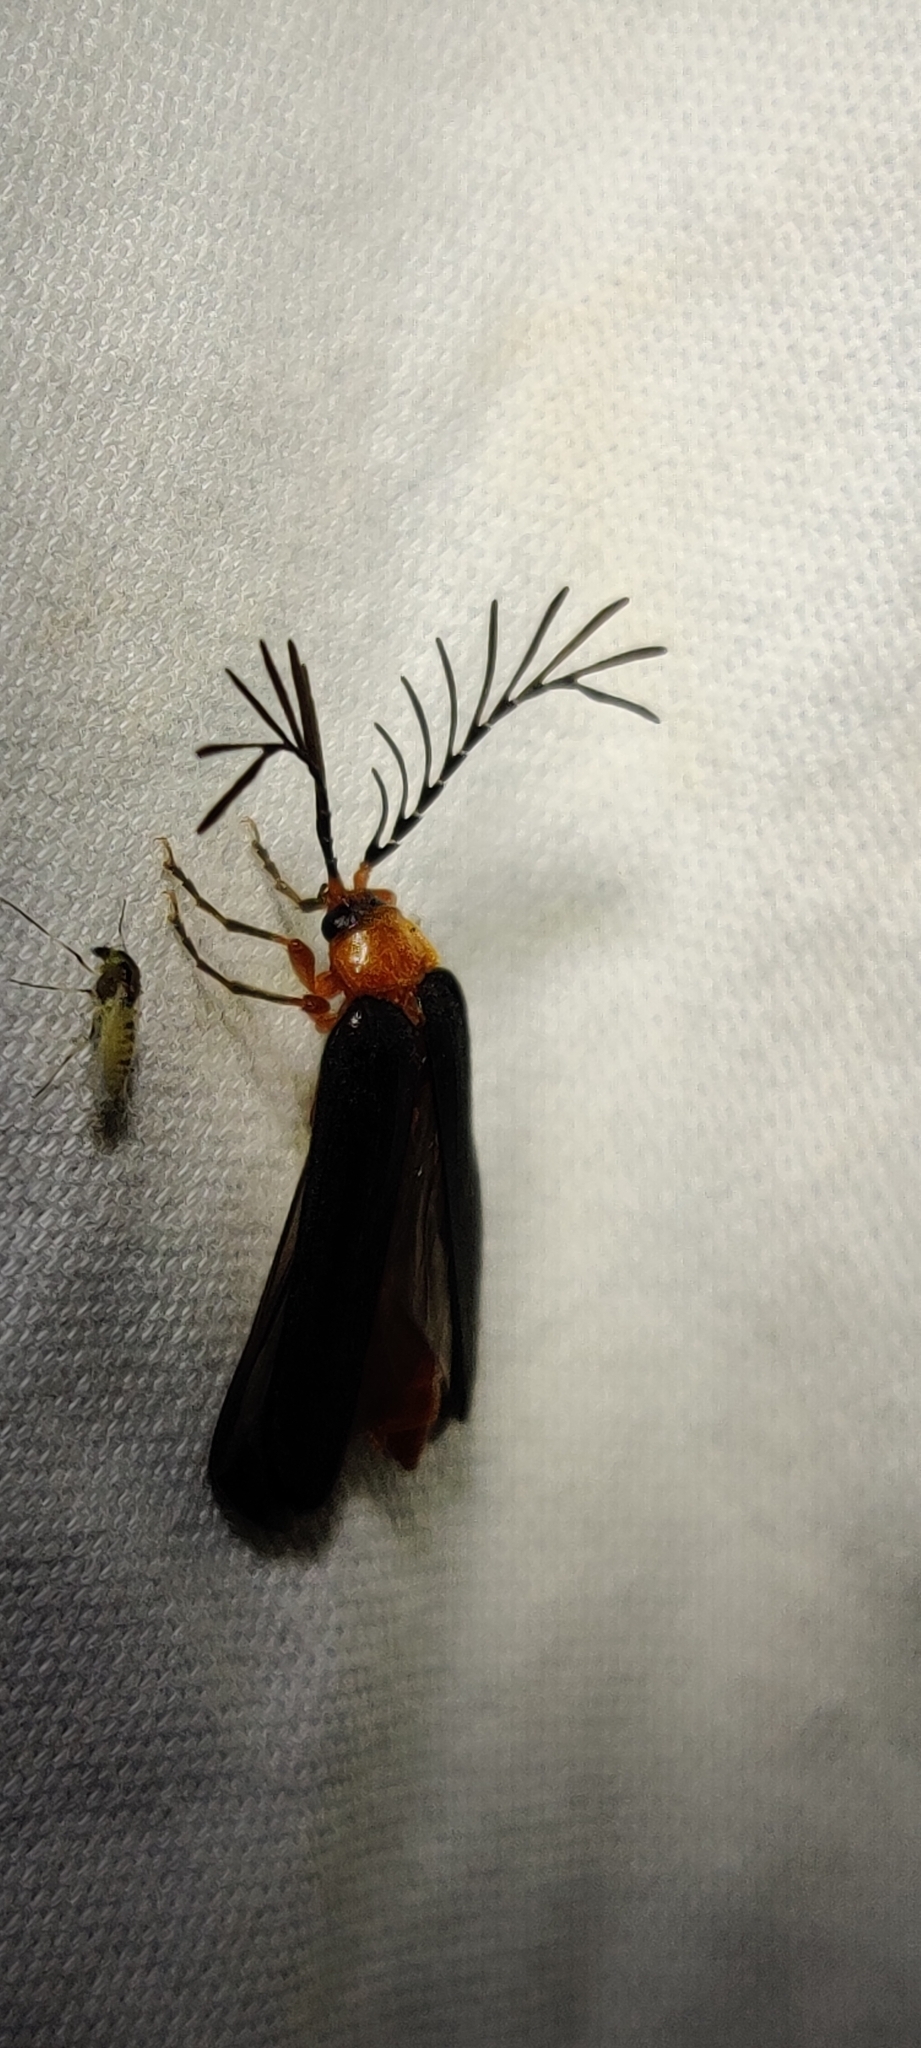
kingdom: Animalia
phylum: Arthropoda
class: Insecta
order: Coleoptera
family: Lampyridae
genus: Pterotus
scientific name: Pterotus obscuripennis
